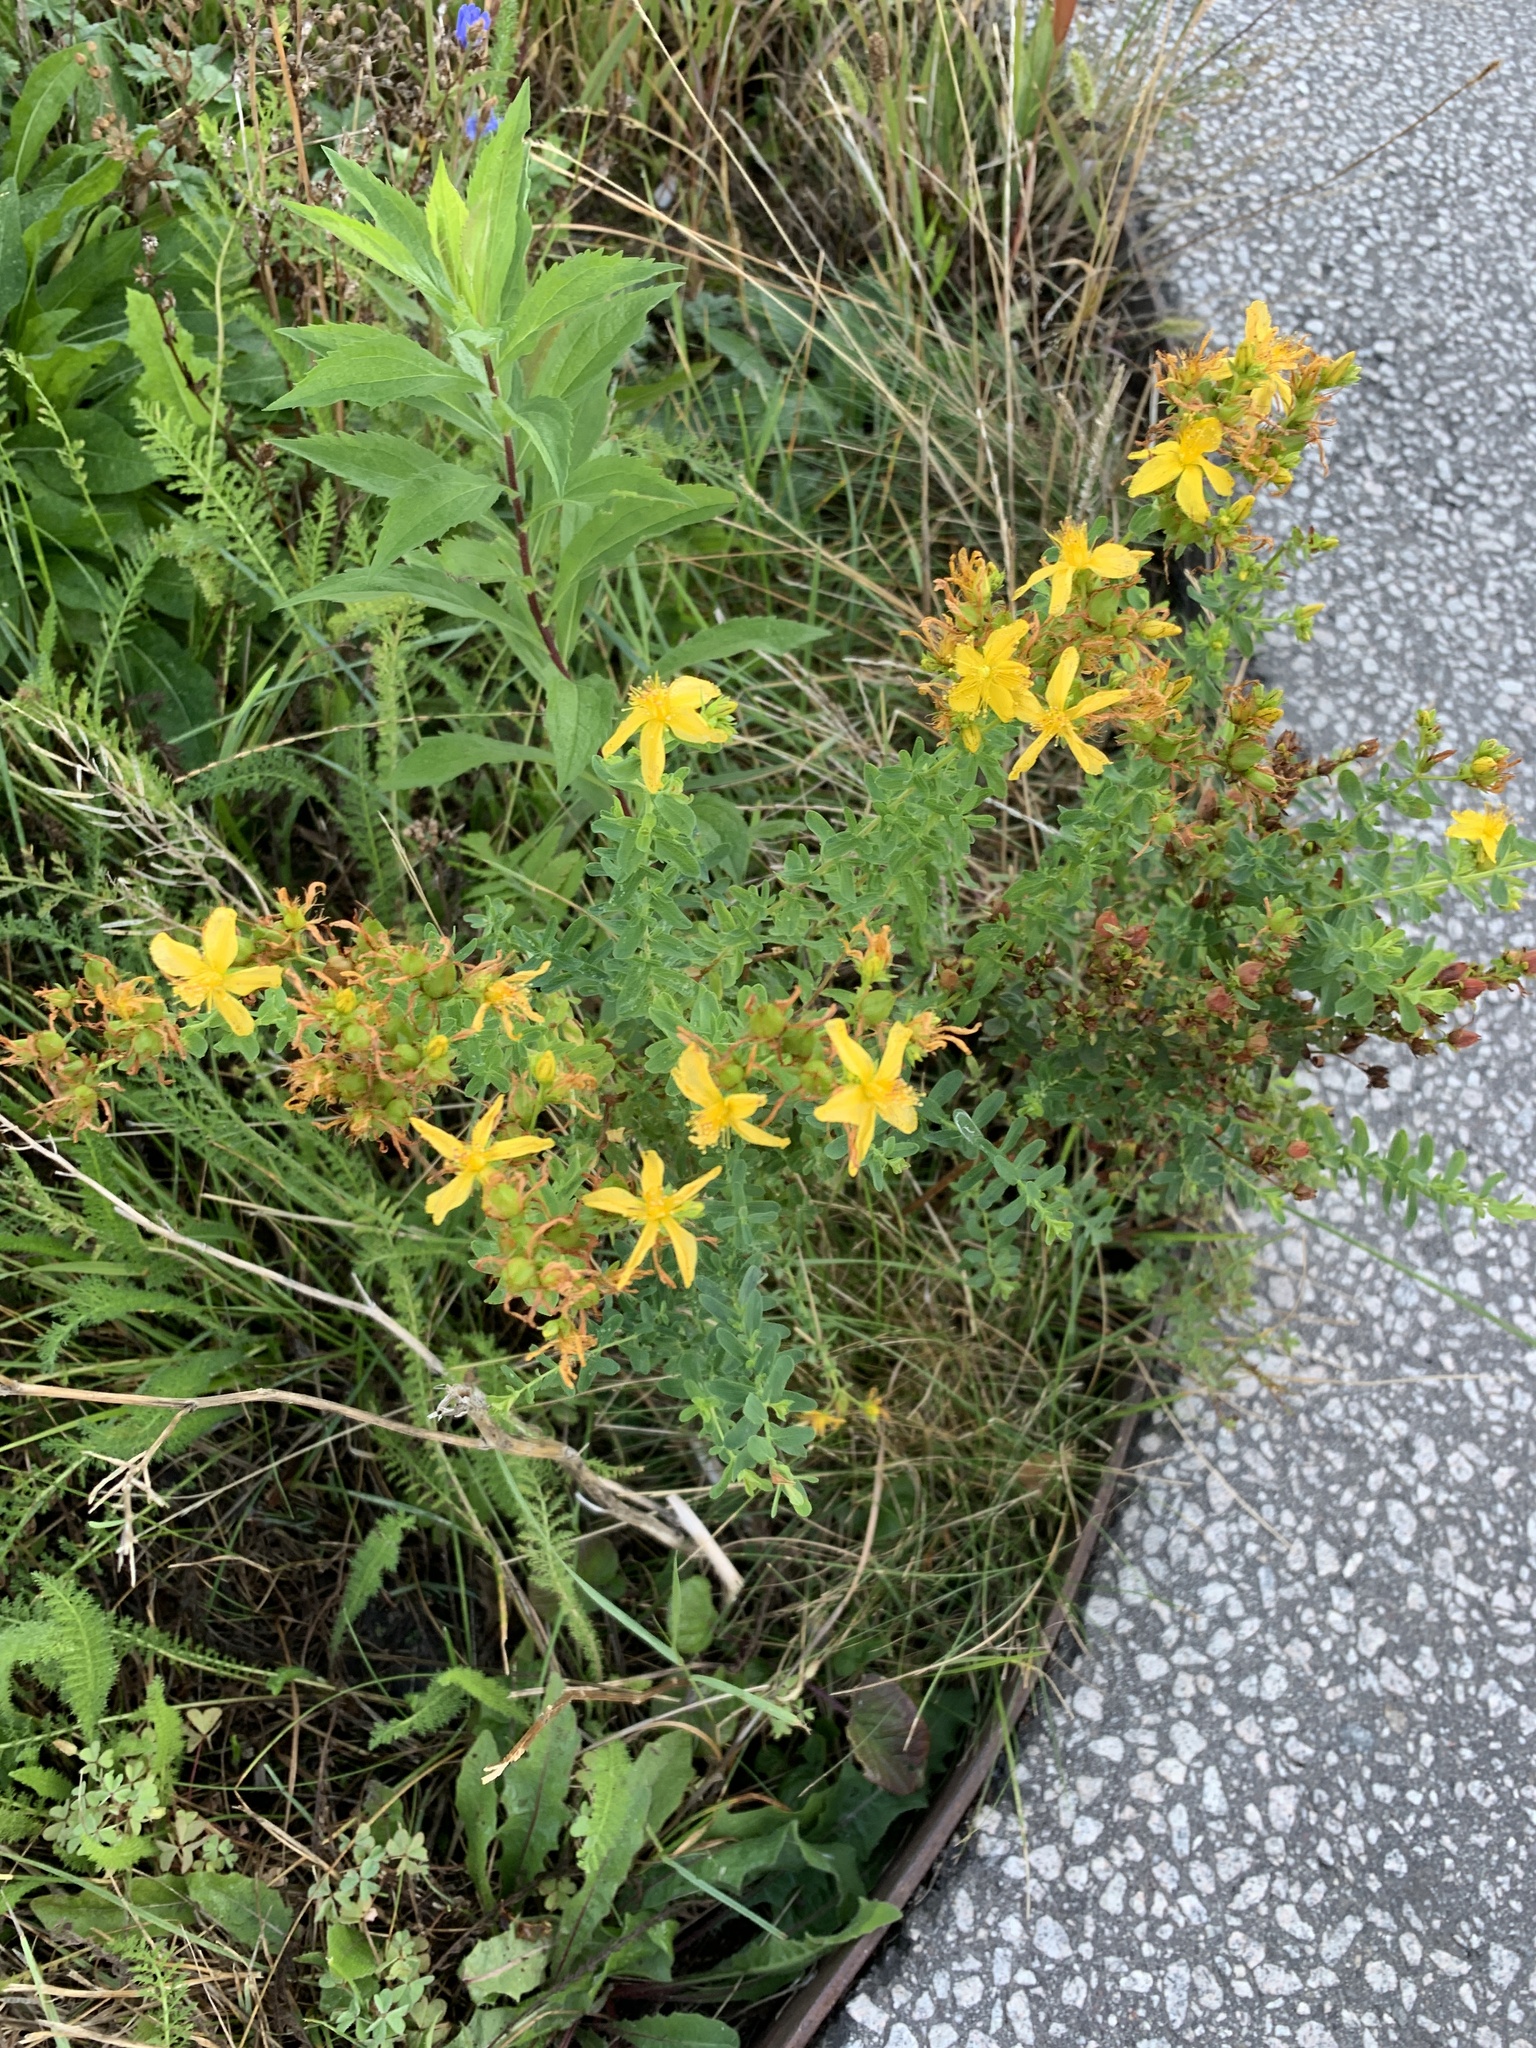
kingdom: Plantae
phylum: Tracheophyta
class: Magnoliopsida
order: Malpighiales
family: Hypericaceae
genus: Hypericum
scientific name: Hypericum perforatum
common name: Common st. johnswort
